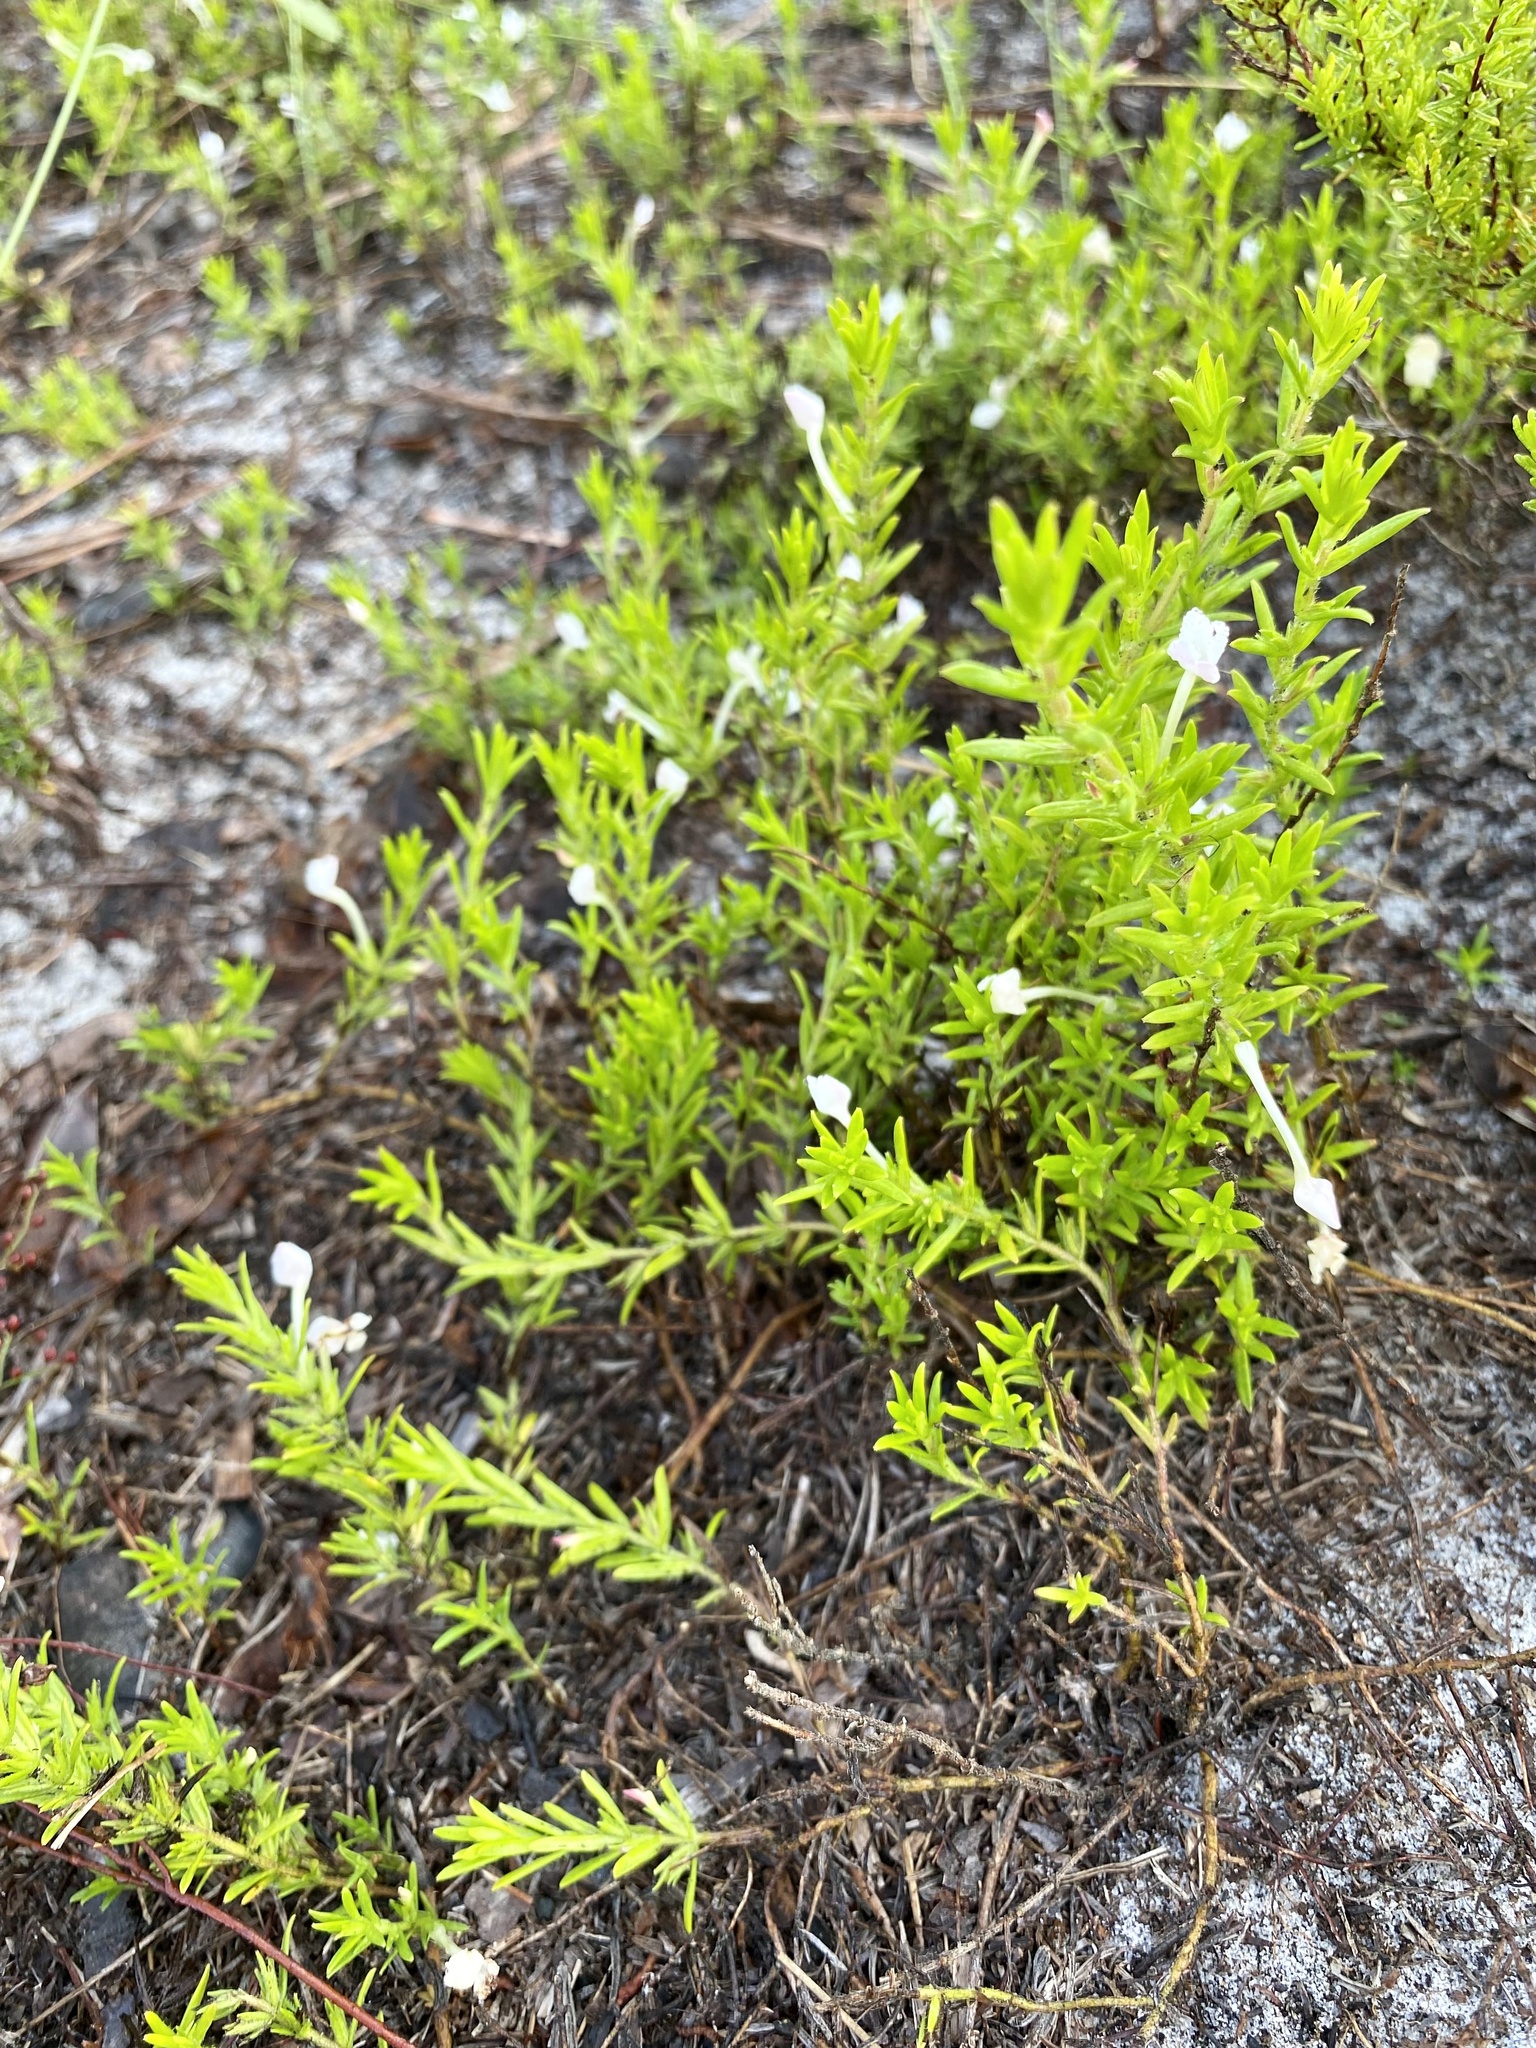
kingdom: Plantae
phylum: Tracheophyta
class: Magnoliopsida
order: Lamiales
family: Plantaginaceae
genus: Gratiola
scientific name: Gratiola hispida
